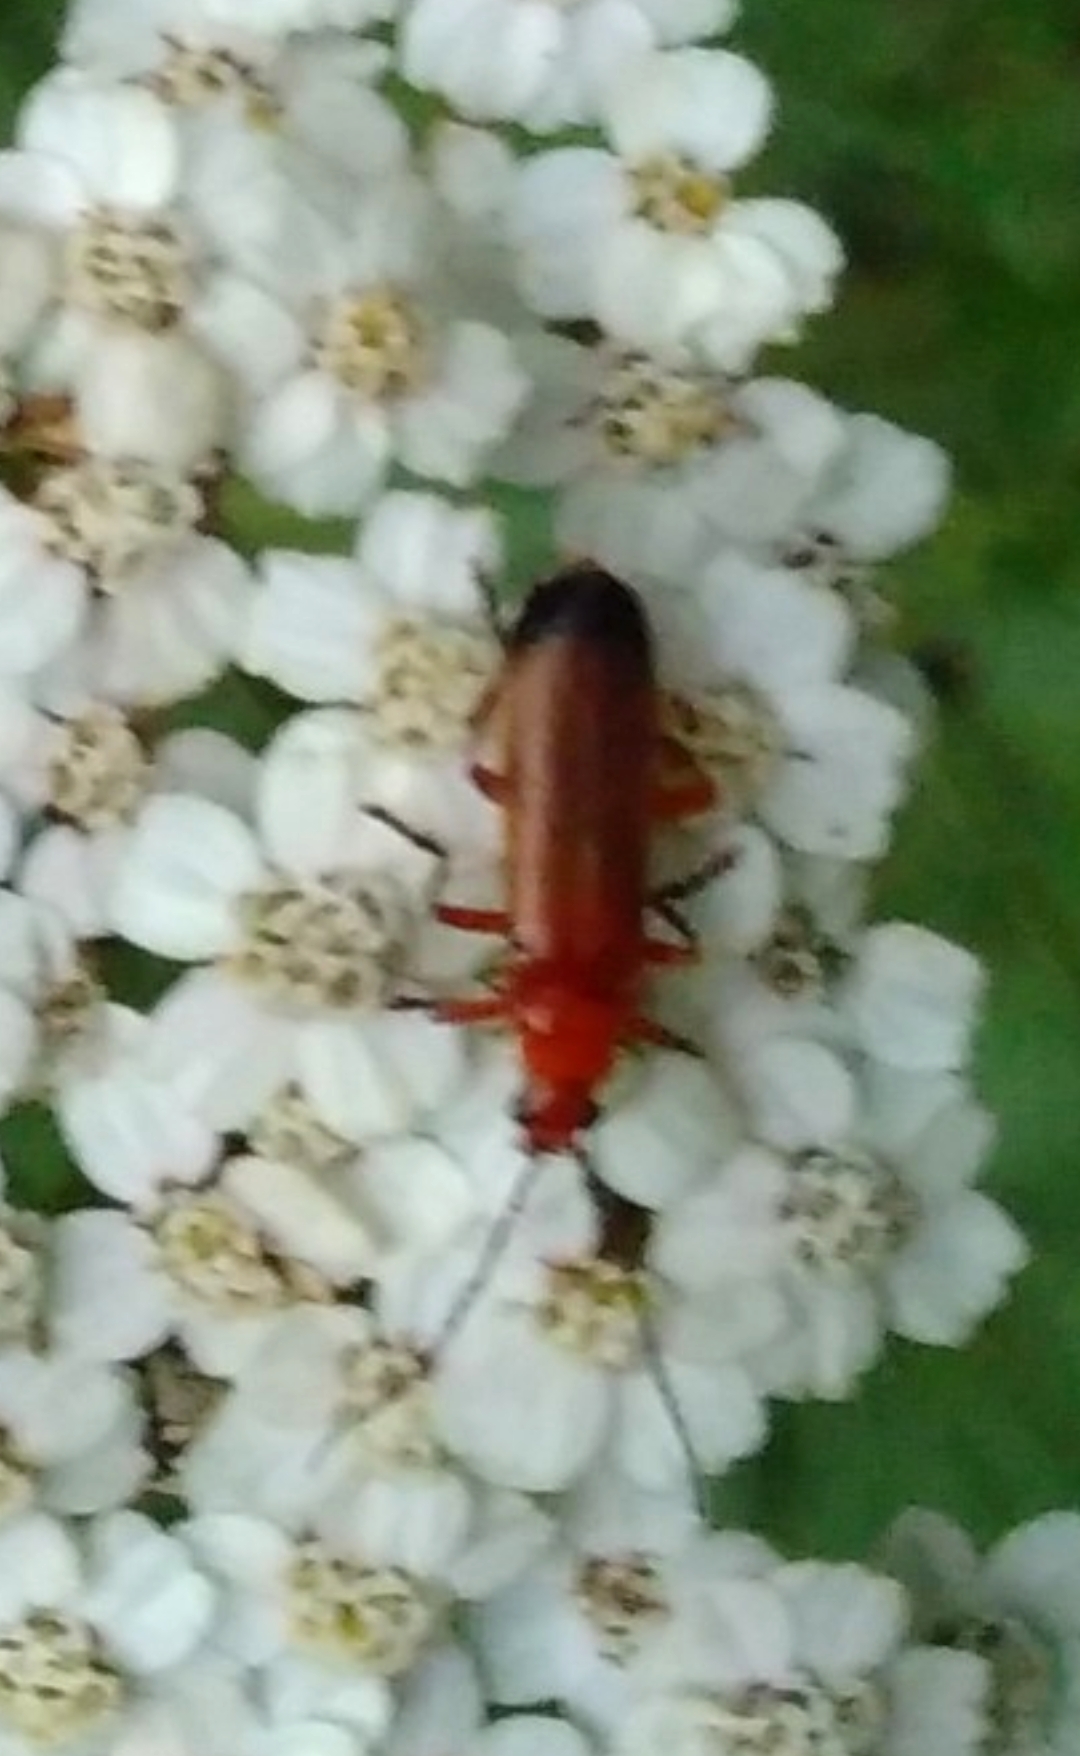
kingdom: Animalia
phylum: Arthropoda
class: Insecta
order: Coleoptera
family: Cantharidae
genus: Rhagonycha
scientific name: Rhagonycha fulva
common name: Common red soldier beetle
